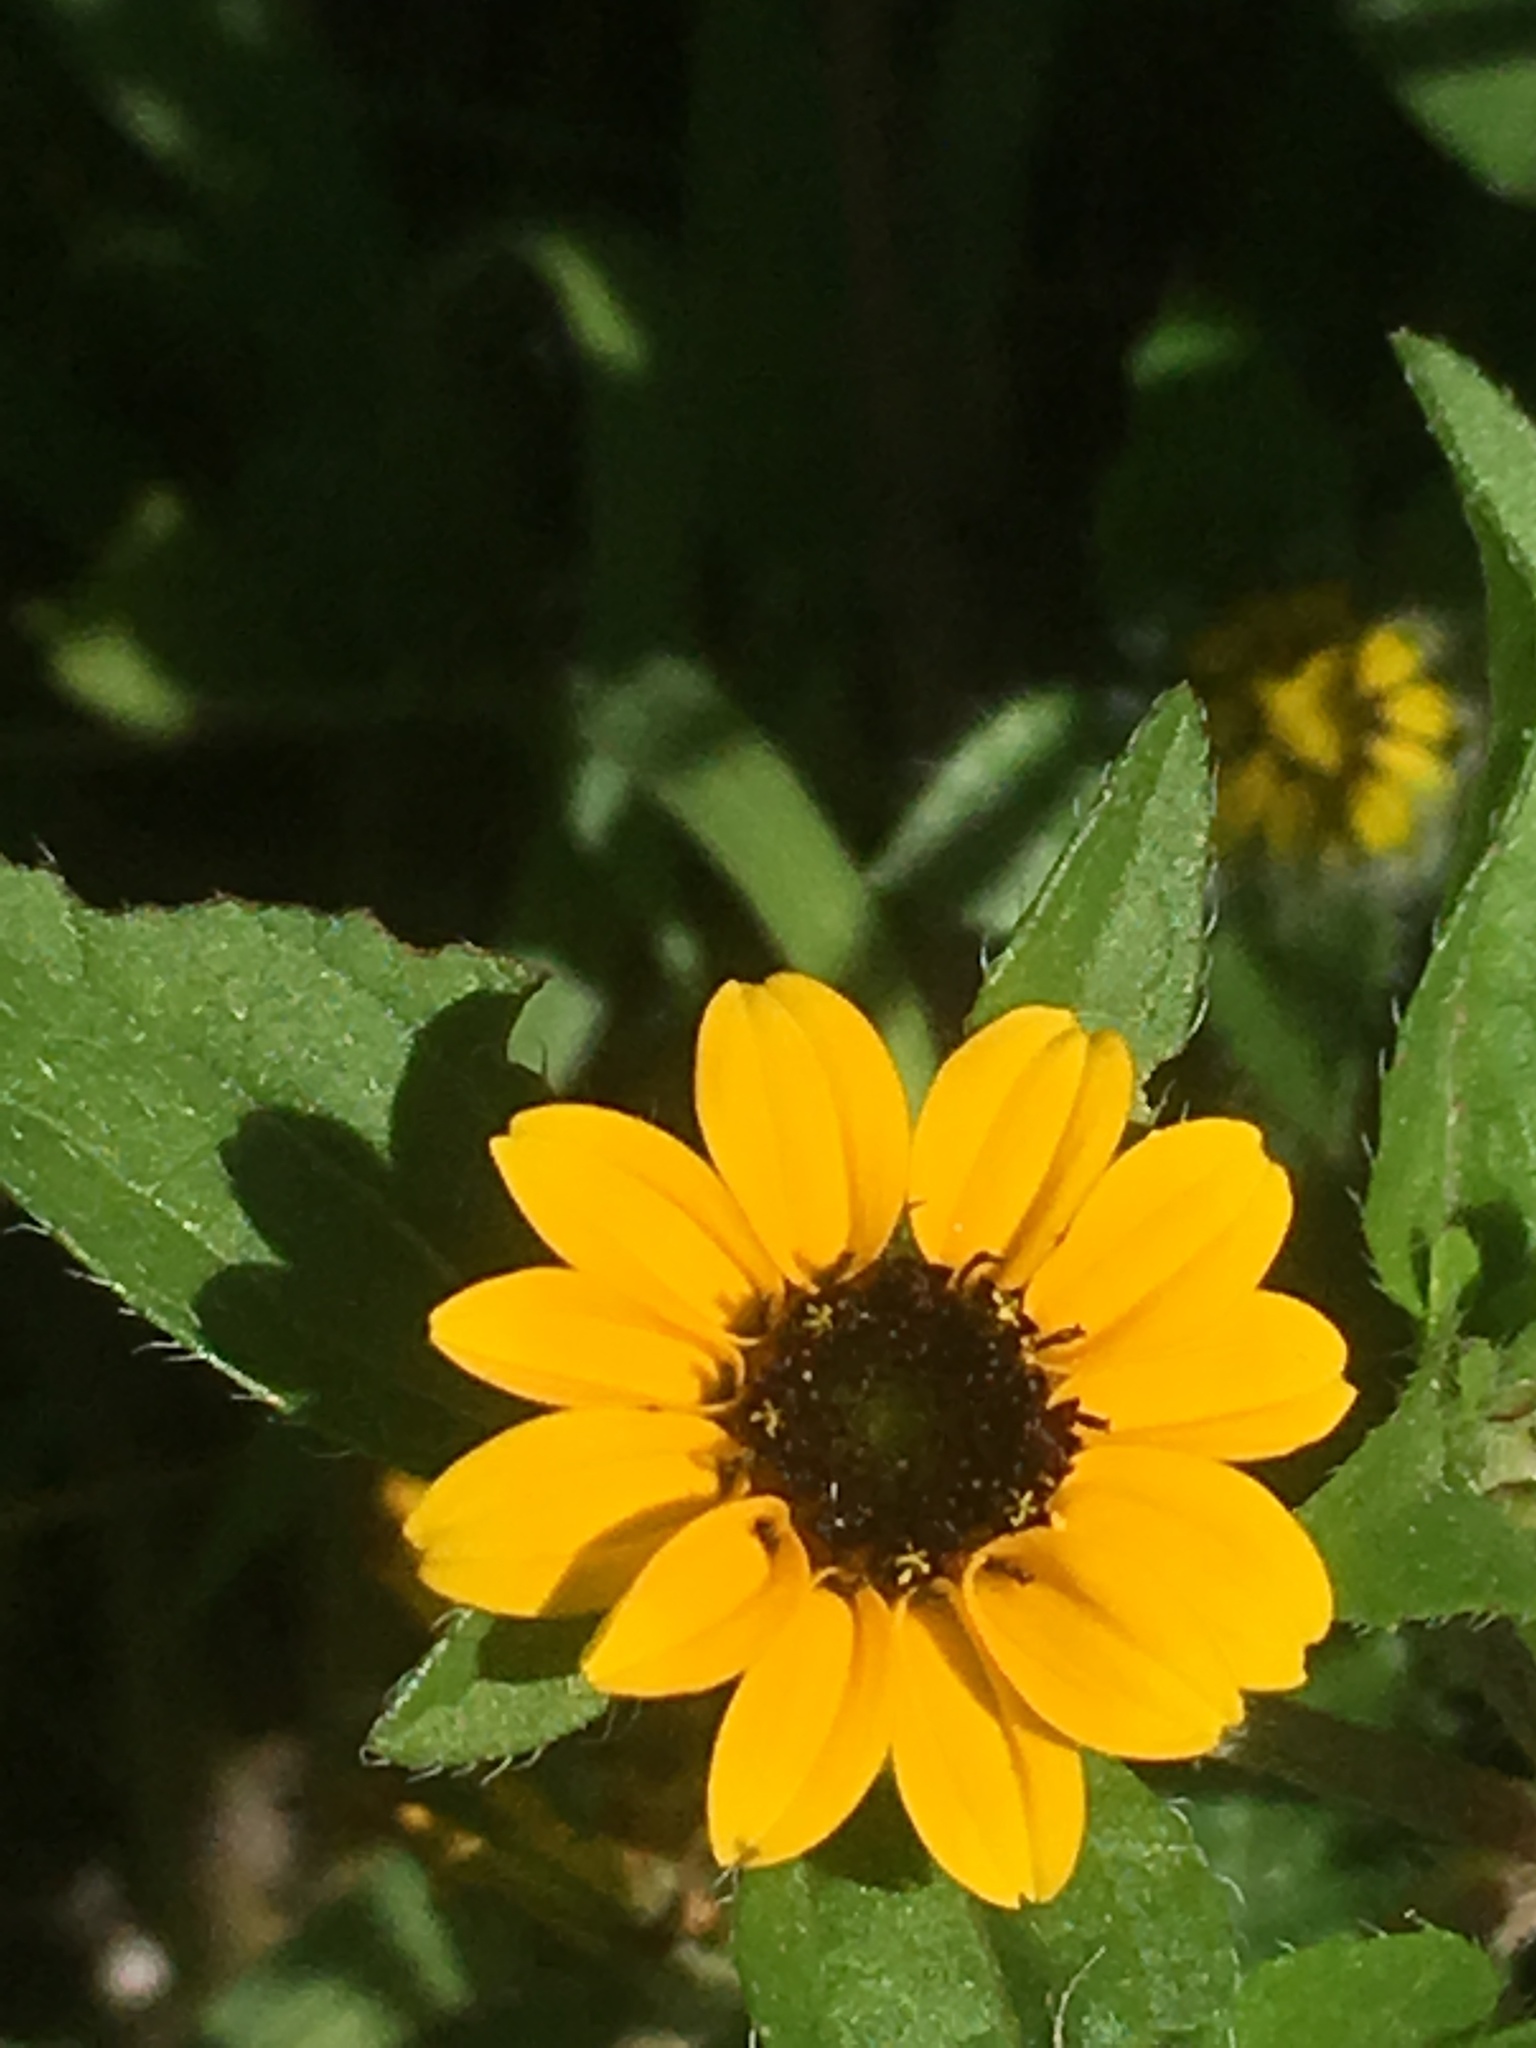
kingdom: Plantae
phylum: Tracheophyta
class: Magnoliopsida
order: Asterales
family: Asteraceae
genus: Sanvitalia
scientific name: Sanvitalia procumbens
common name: Mexican creeping zinnia
